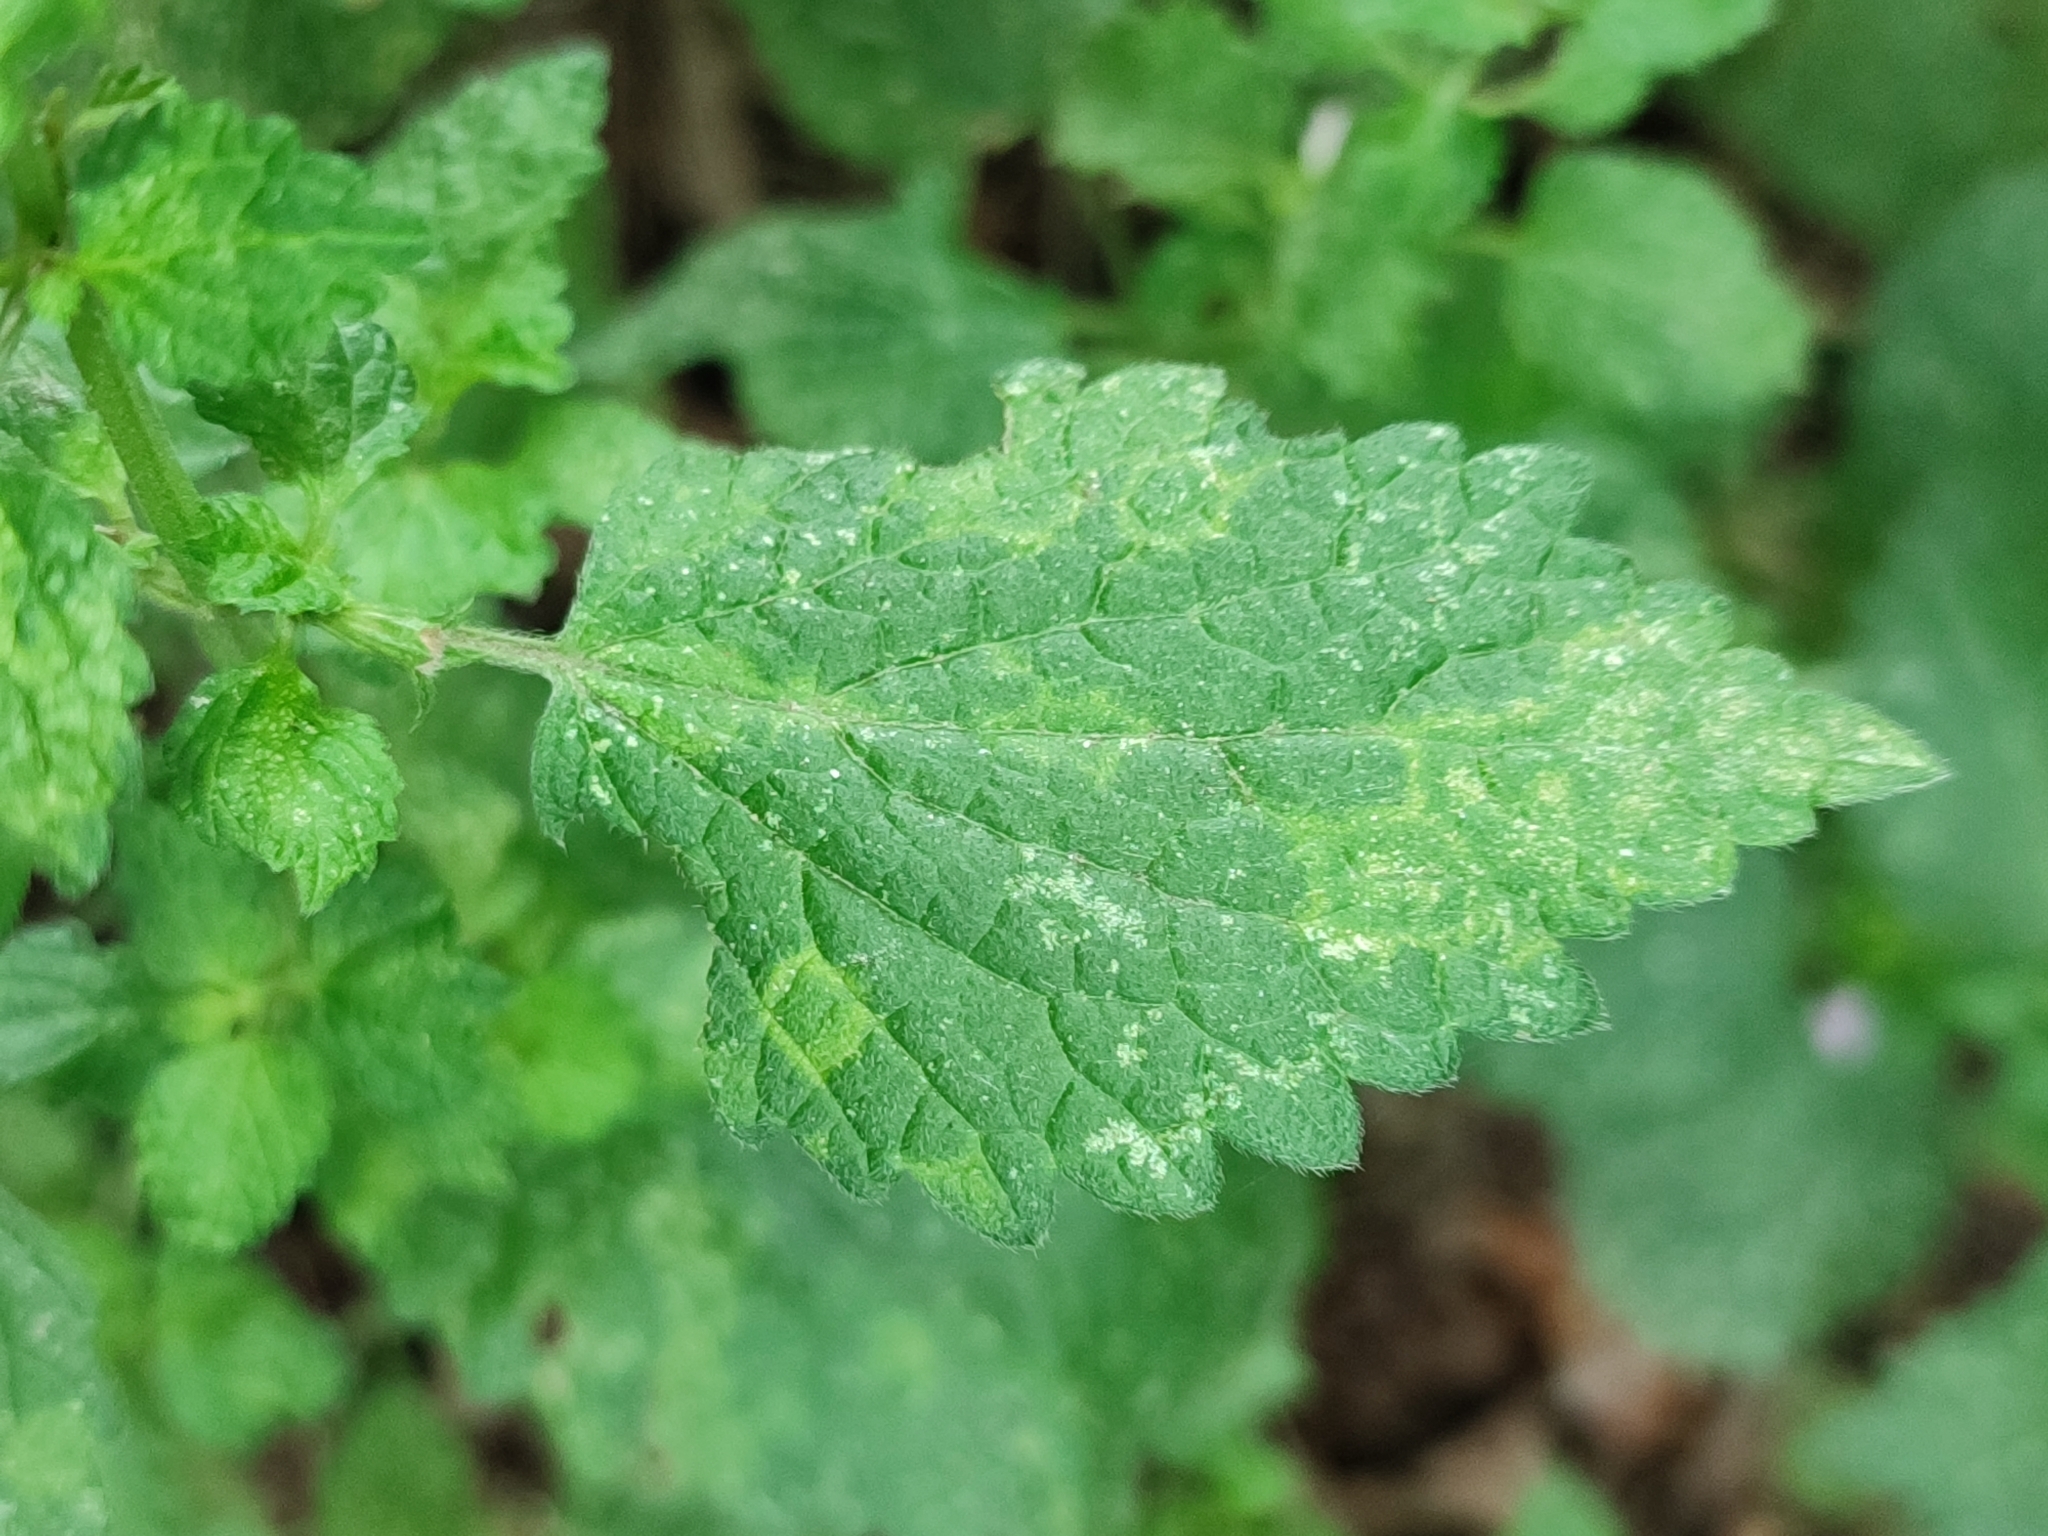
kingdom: Plantae
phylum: Tracheophyta
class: Magnoliopsida
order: Lamiales
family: Lamiaceae
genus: Ballota
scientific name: Ballota nigra
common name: Black horehound
